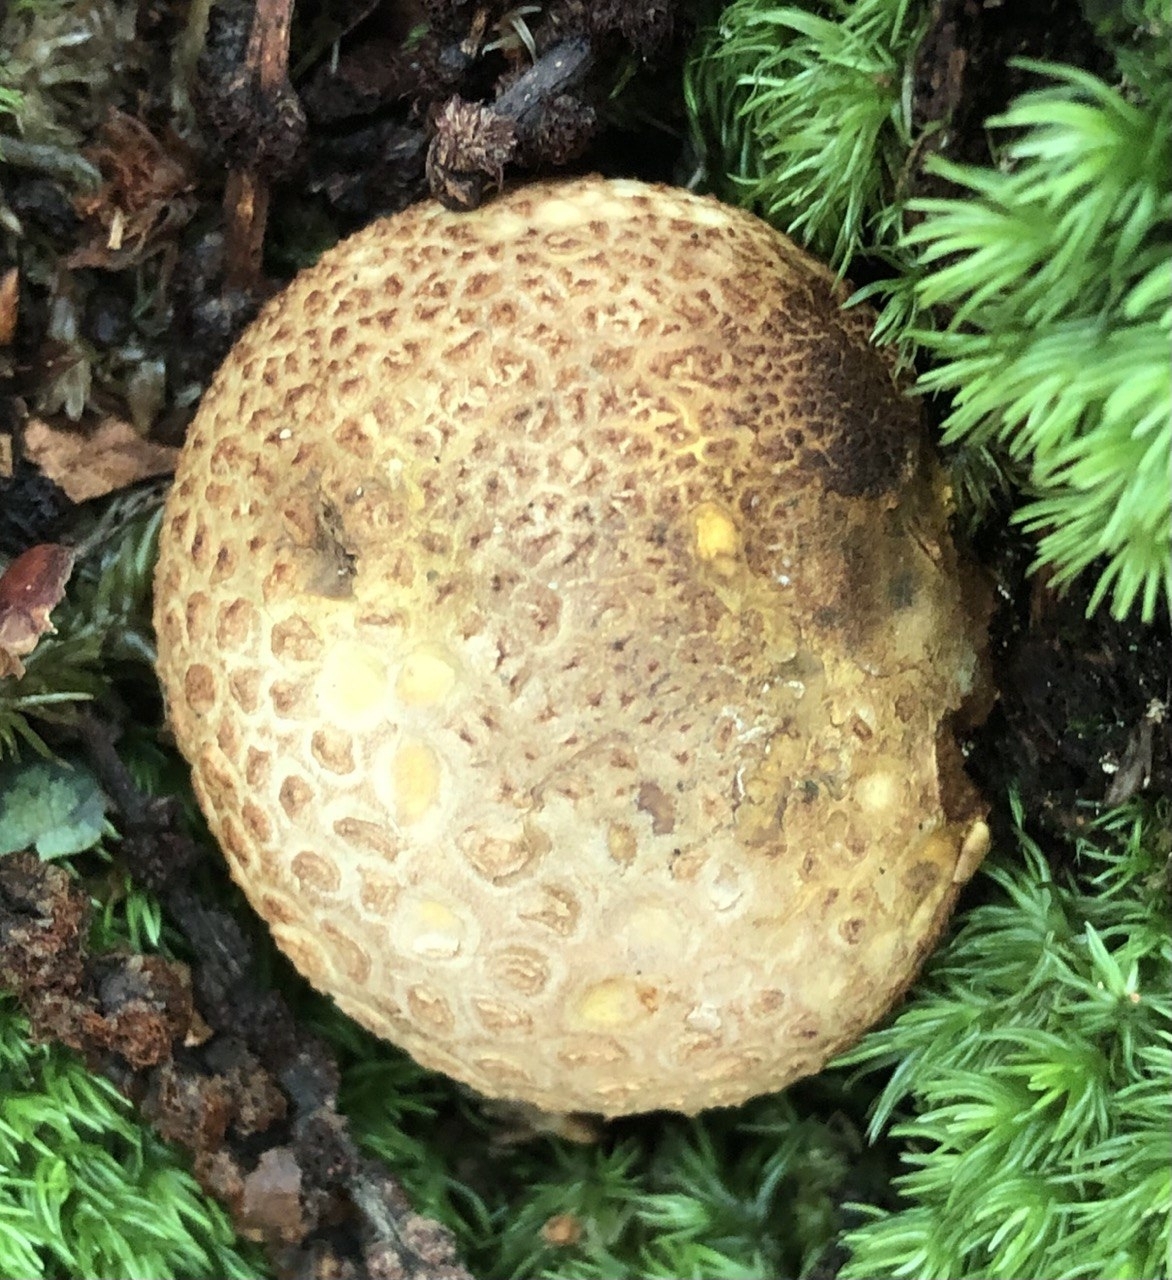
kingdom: Fungi
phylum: Basidiomycota
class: Agaricomycetes
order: Boletales
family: Sclerodermataceae
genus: Scleroderma
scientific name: Scleroderma citrinum
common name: Common earthball
